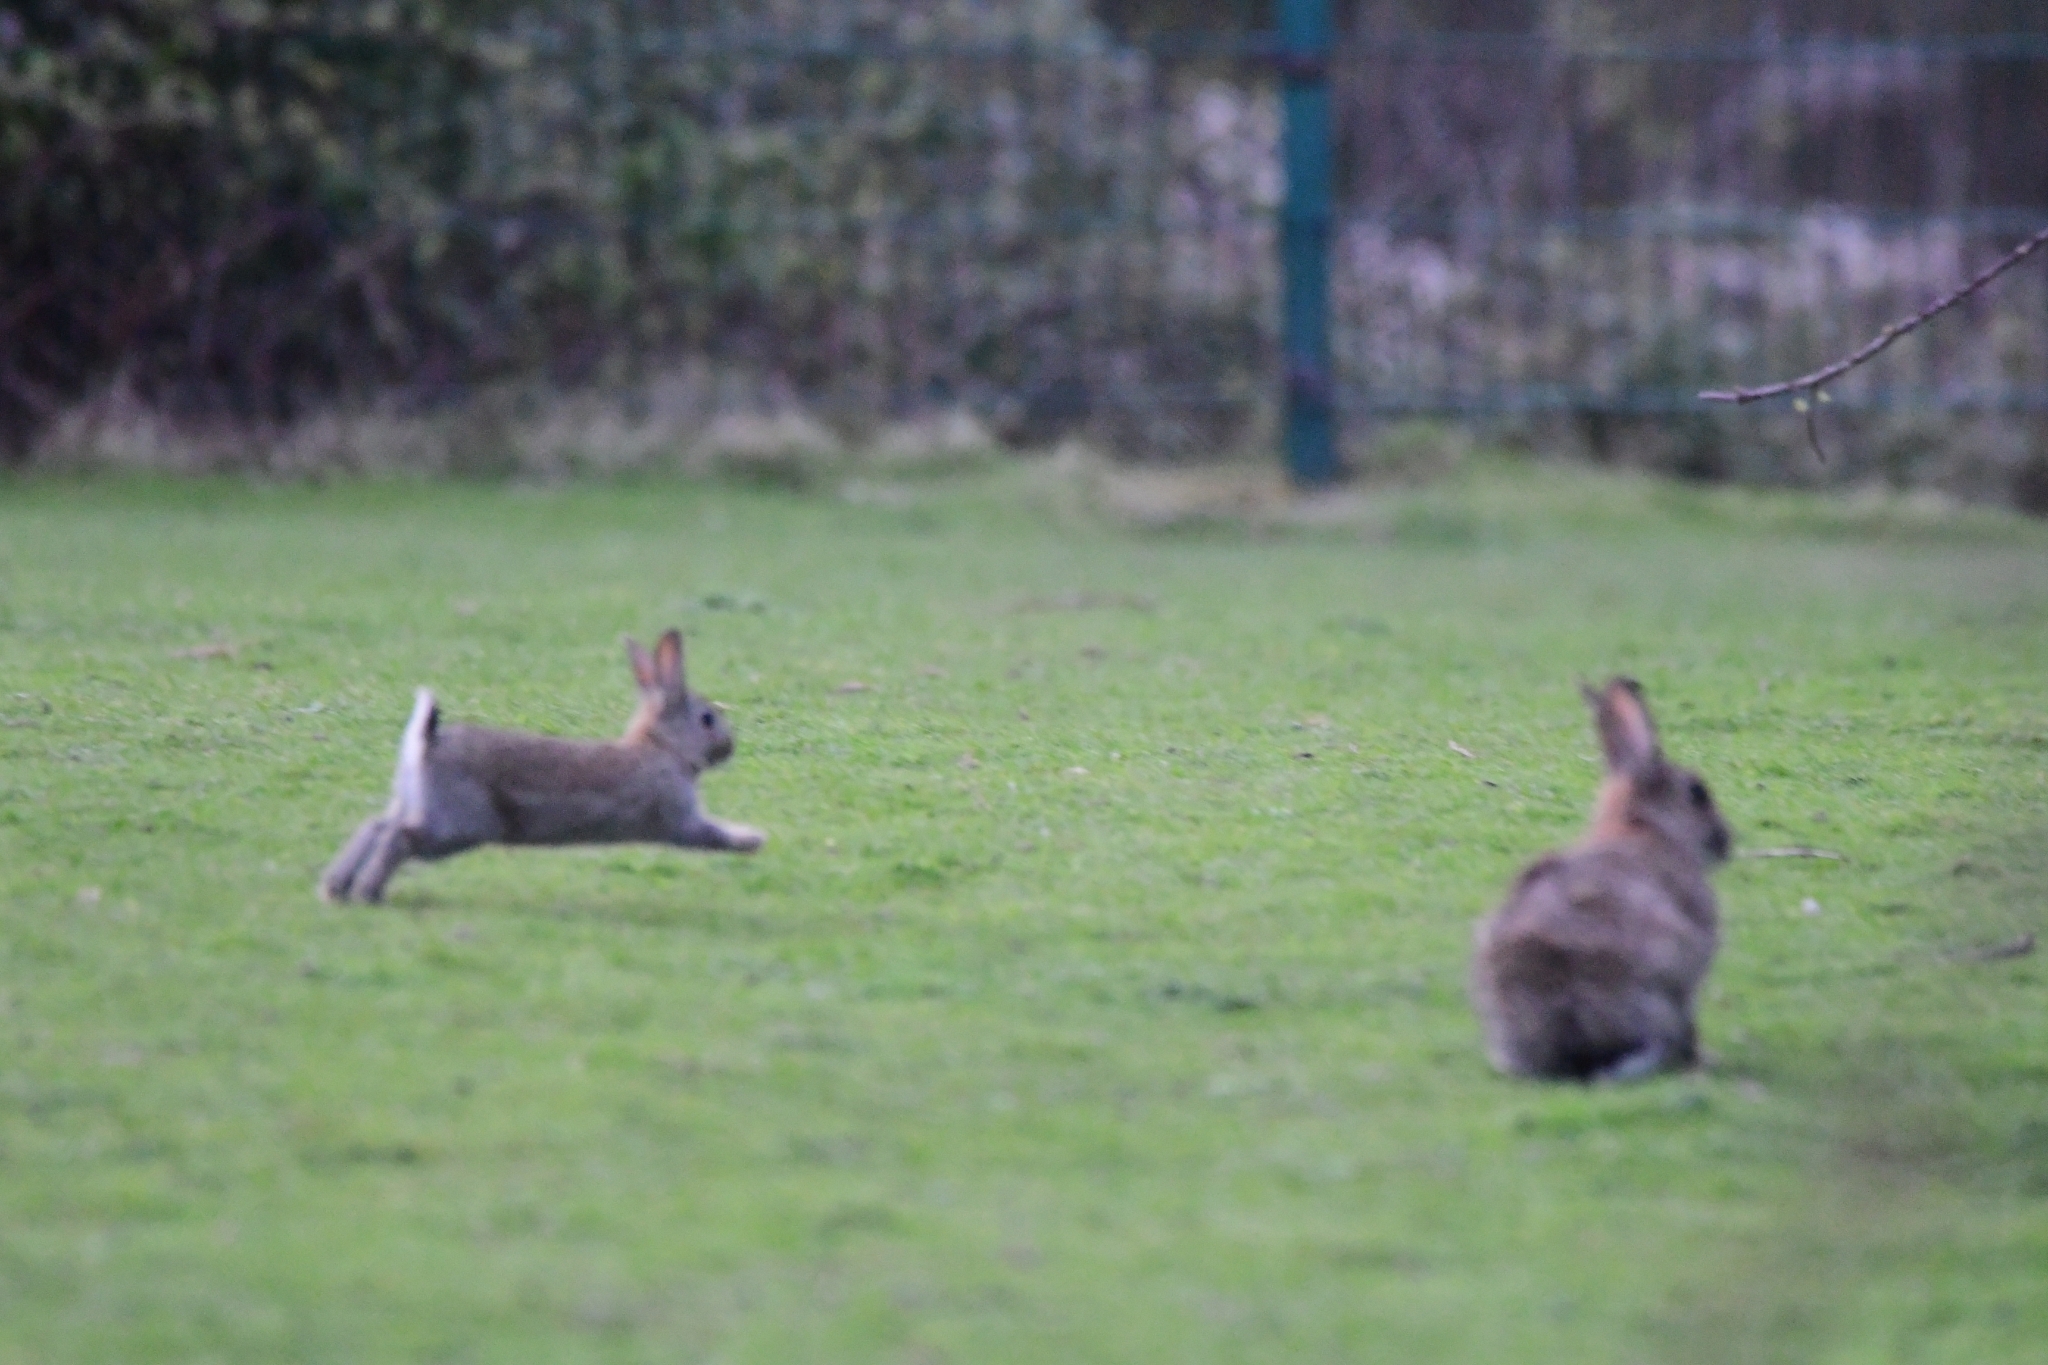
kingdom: Animalia
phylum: Chordata
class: Mammalia
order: Lagomorpha
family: Leporidae
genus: Oryctolagus
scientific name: Oryctolagus cuniculus
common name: European rabbit
